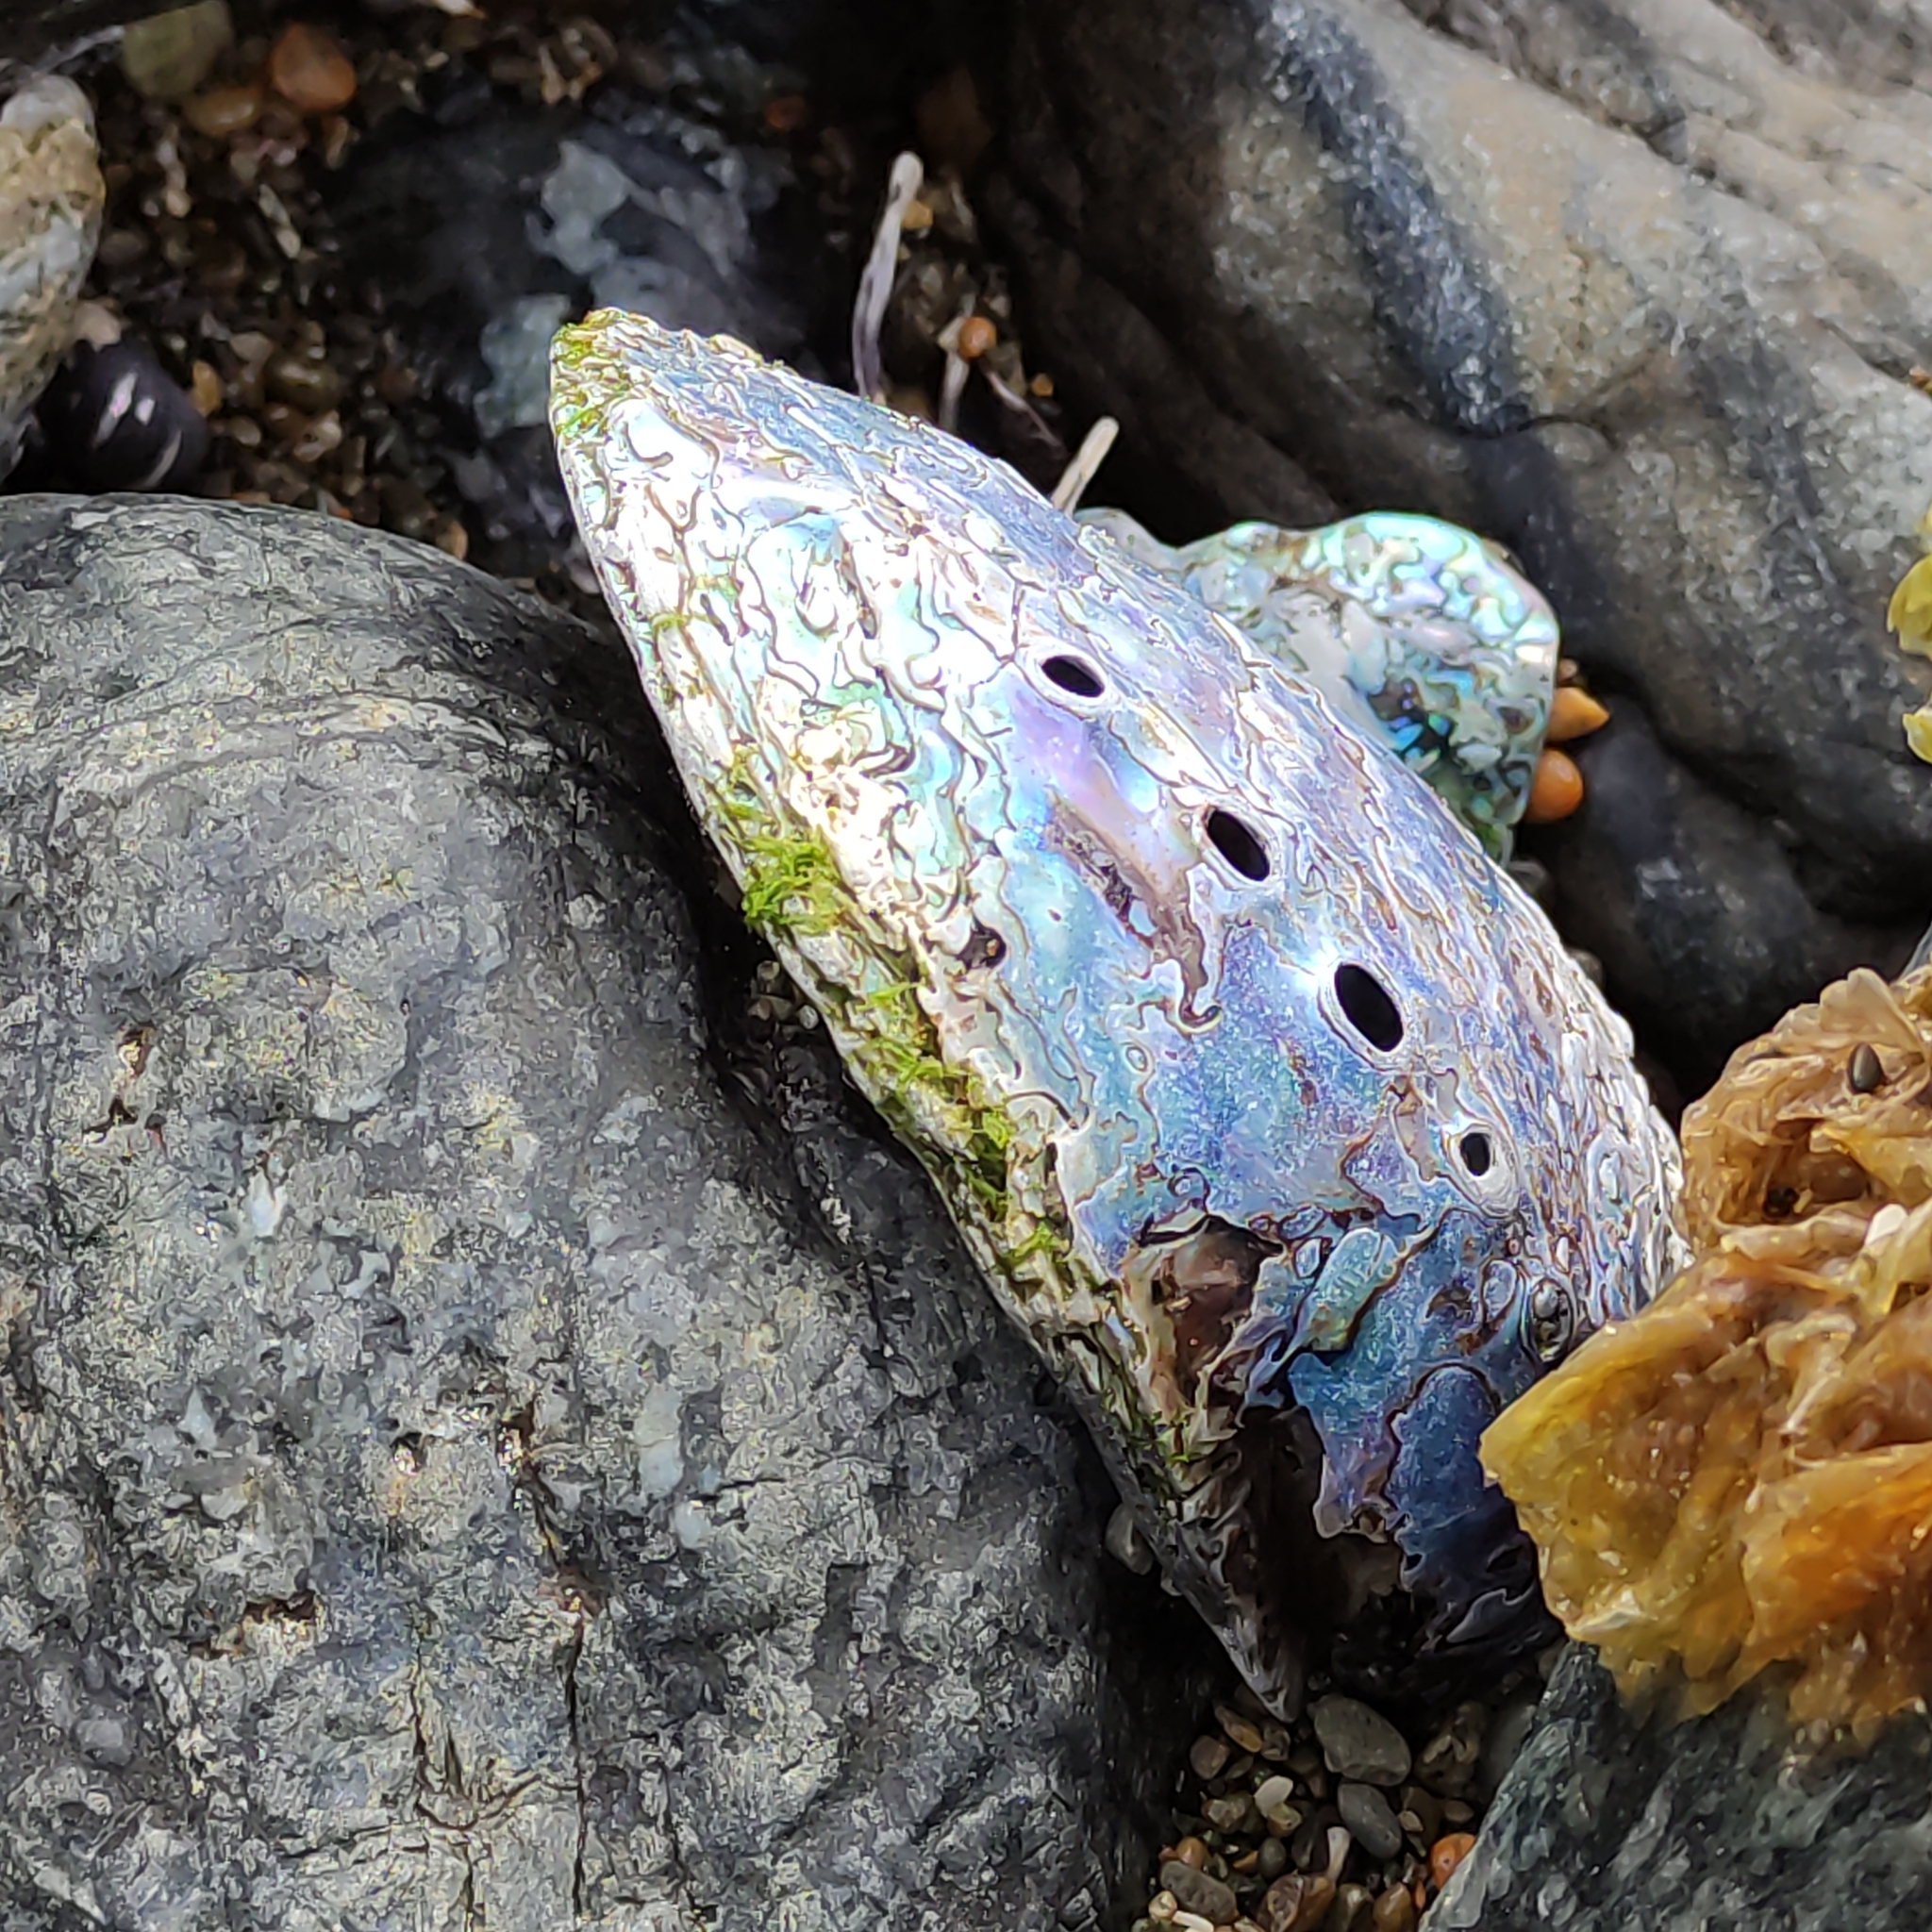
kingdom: Animalia
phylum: Mollusca
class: Gastropoda
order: Lepetellida
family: Haliotidae
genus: Haliotis
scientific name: Haliotis iris
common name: Abalone
